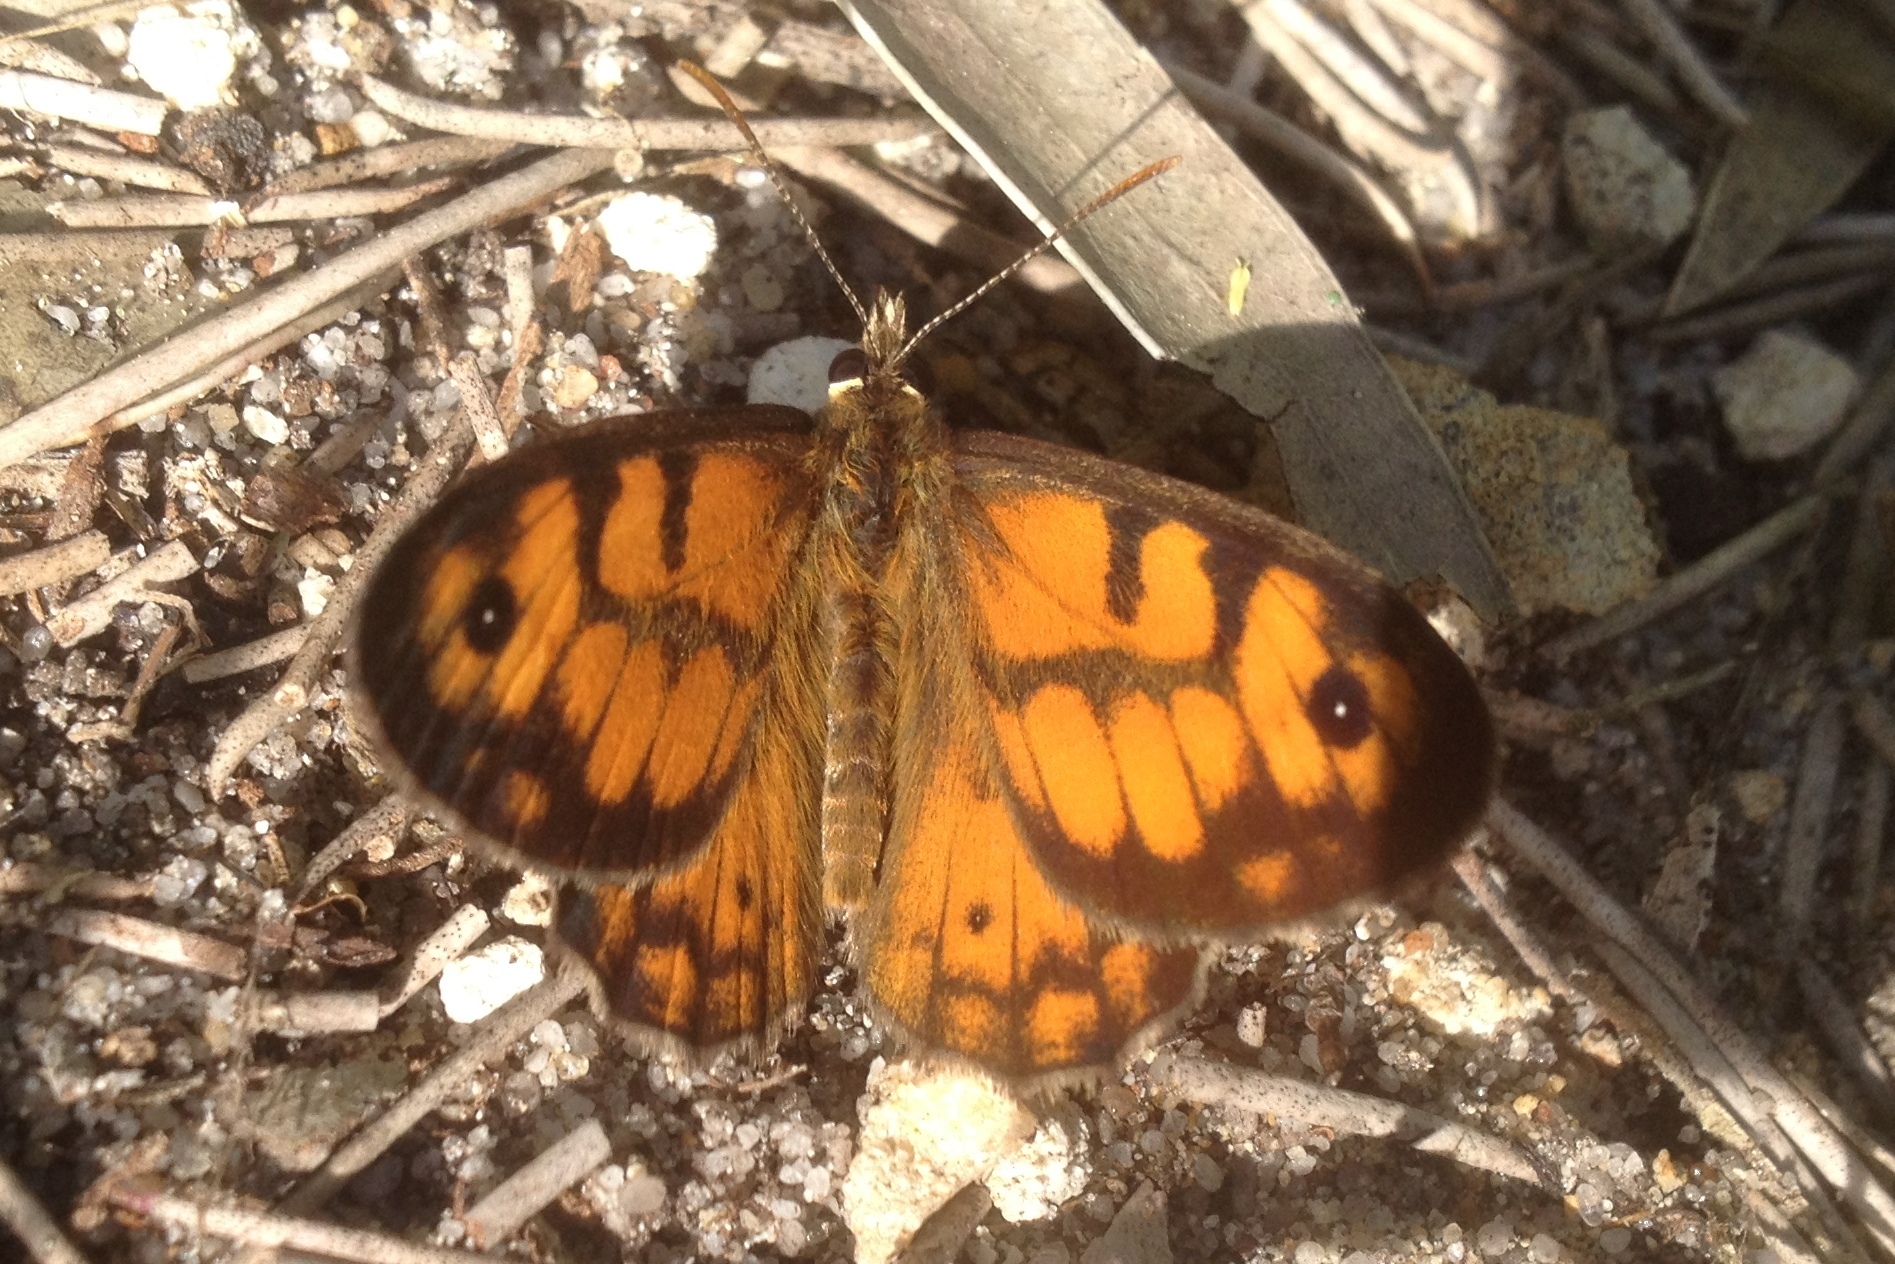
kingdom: Animalia
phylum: Arthropoda
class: Insecta
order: Lepidoptera
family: Nymphalidae
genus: Geitoneura
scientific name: Geitoneura minyas
